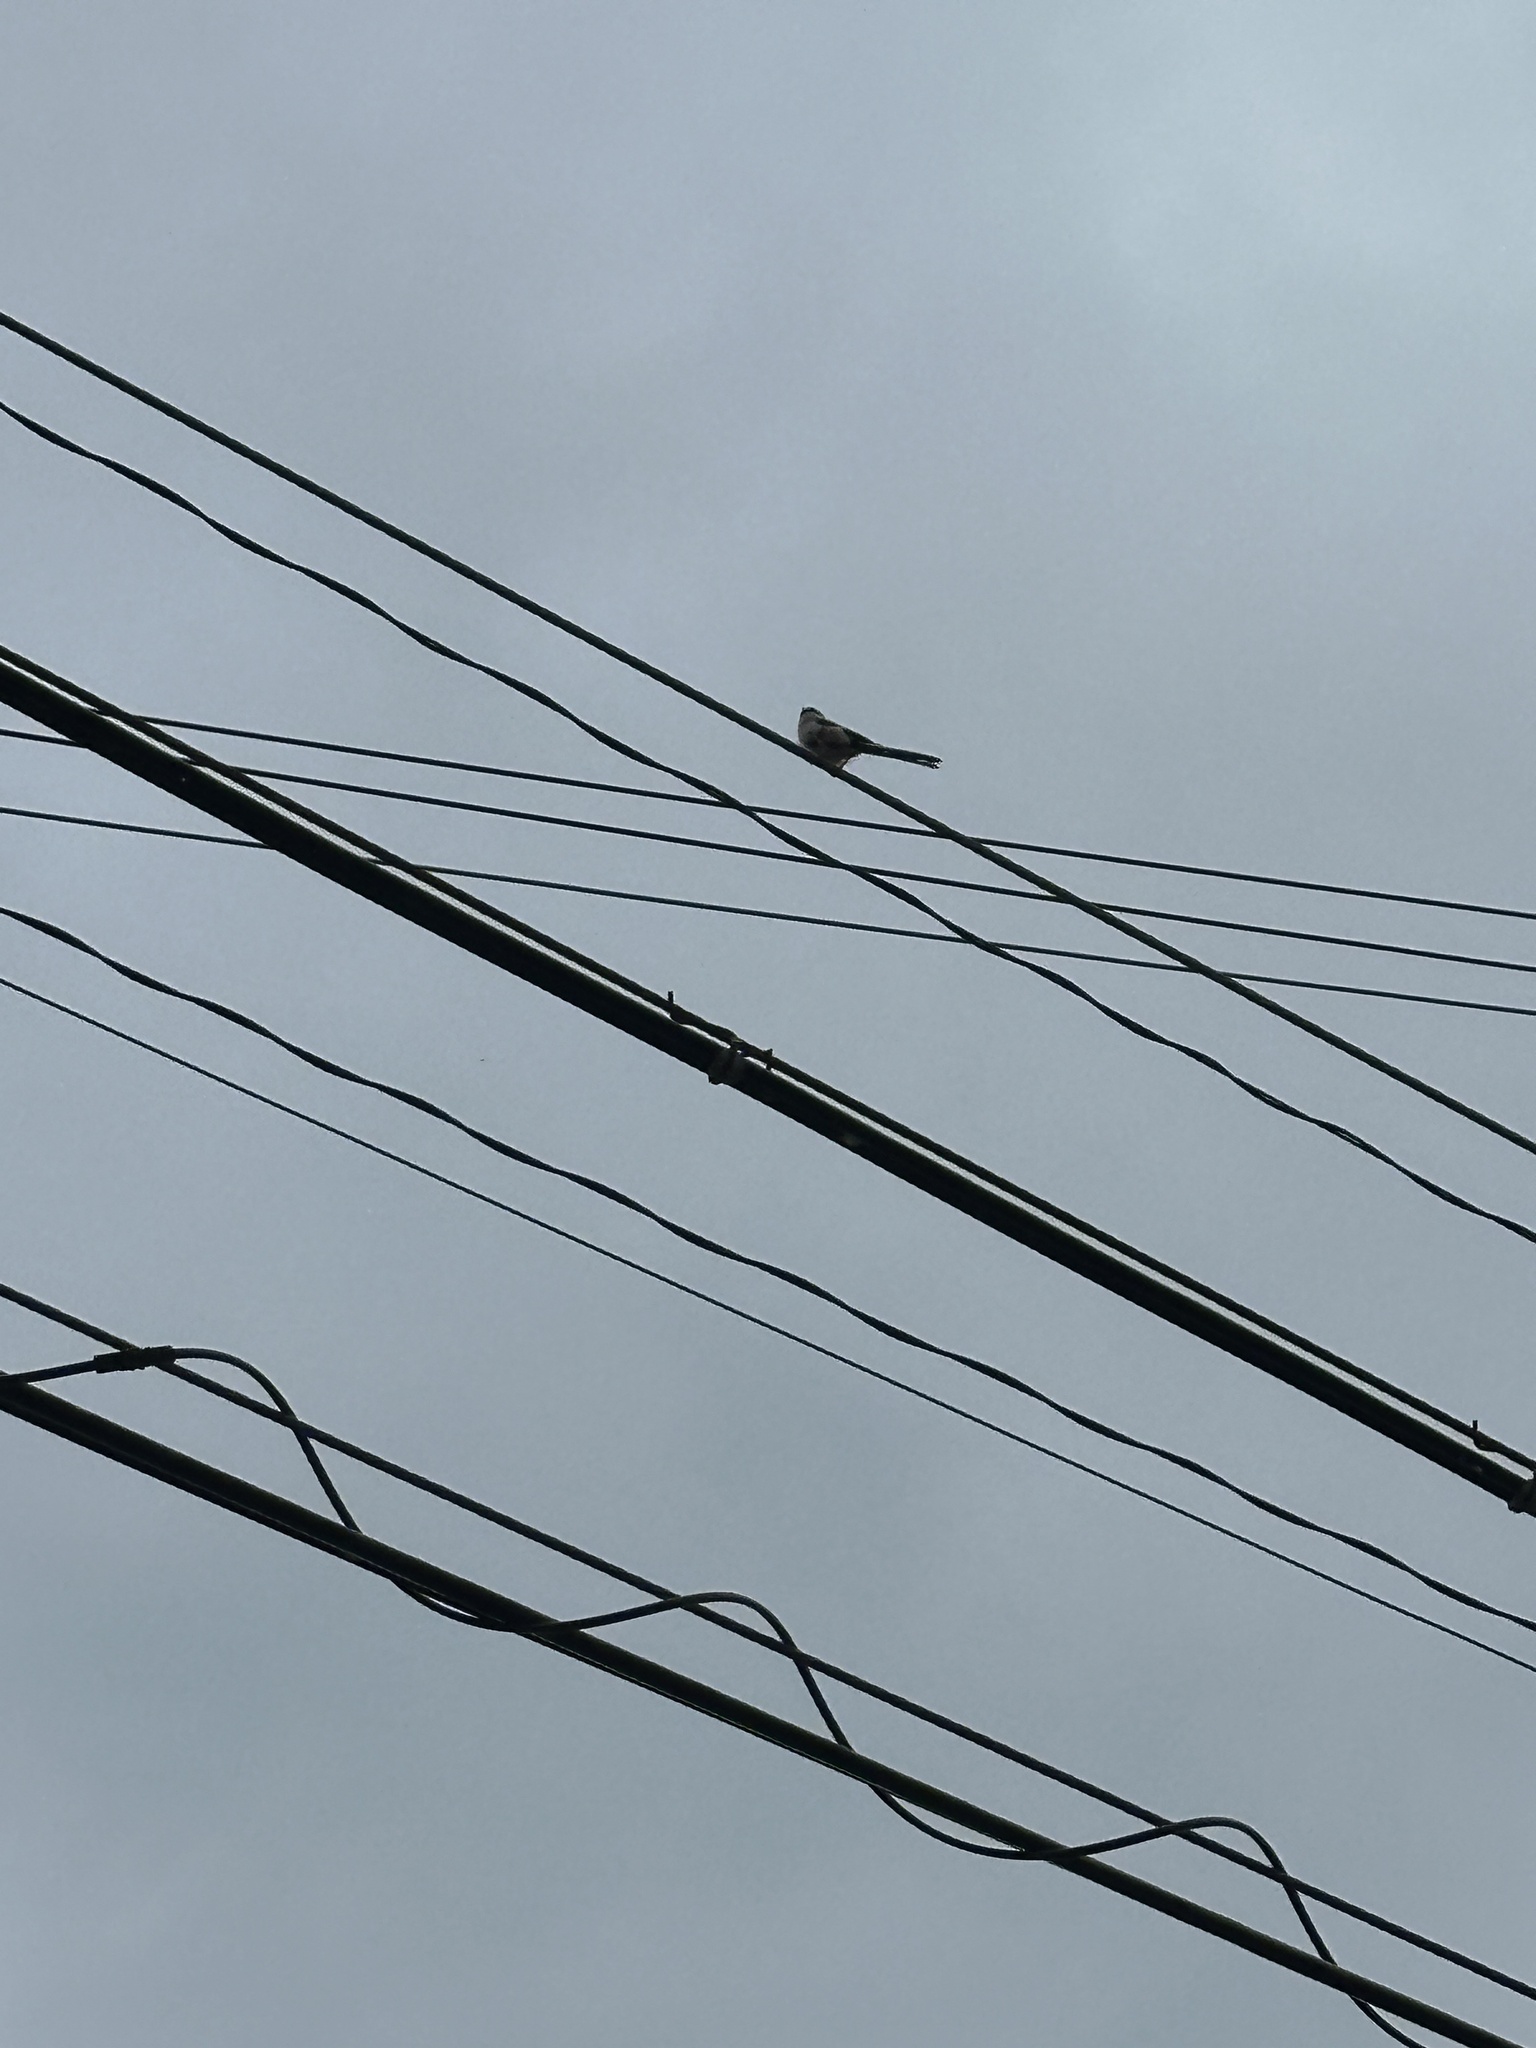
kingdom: Animalia
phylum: Chordata
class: Aves
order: Passeriformes
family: Aegithalidae
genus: Aegithalos
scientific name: Aegithalos caudatus
